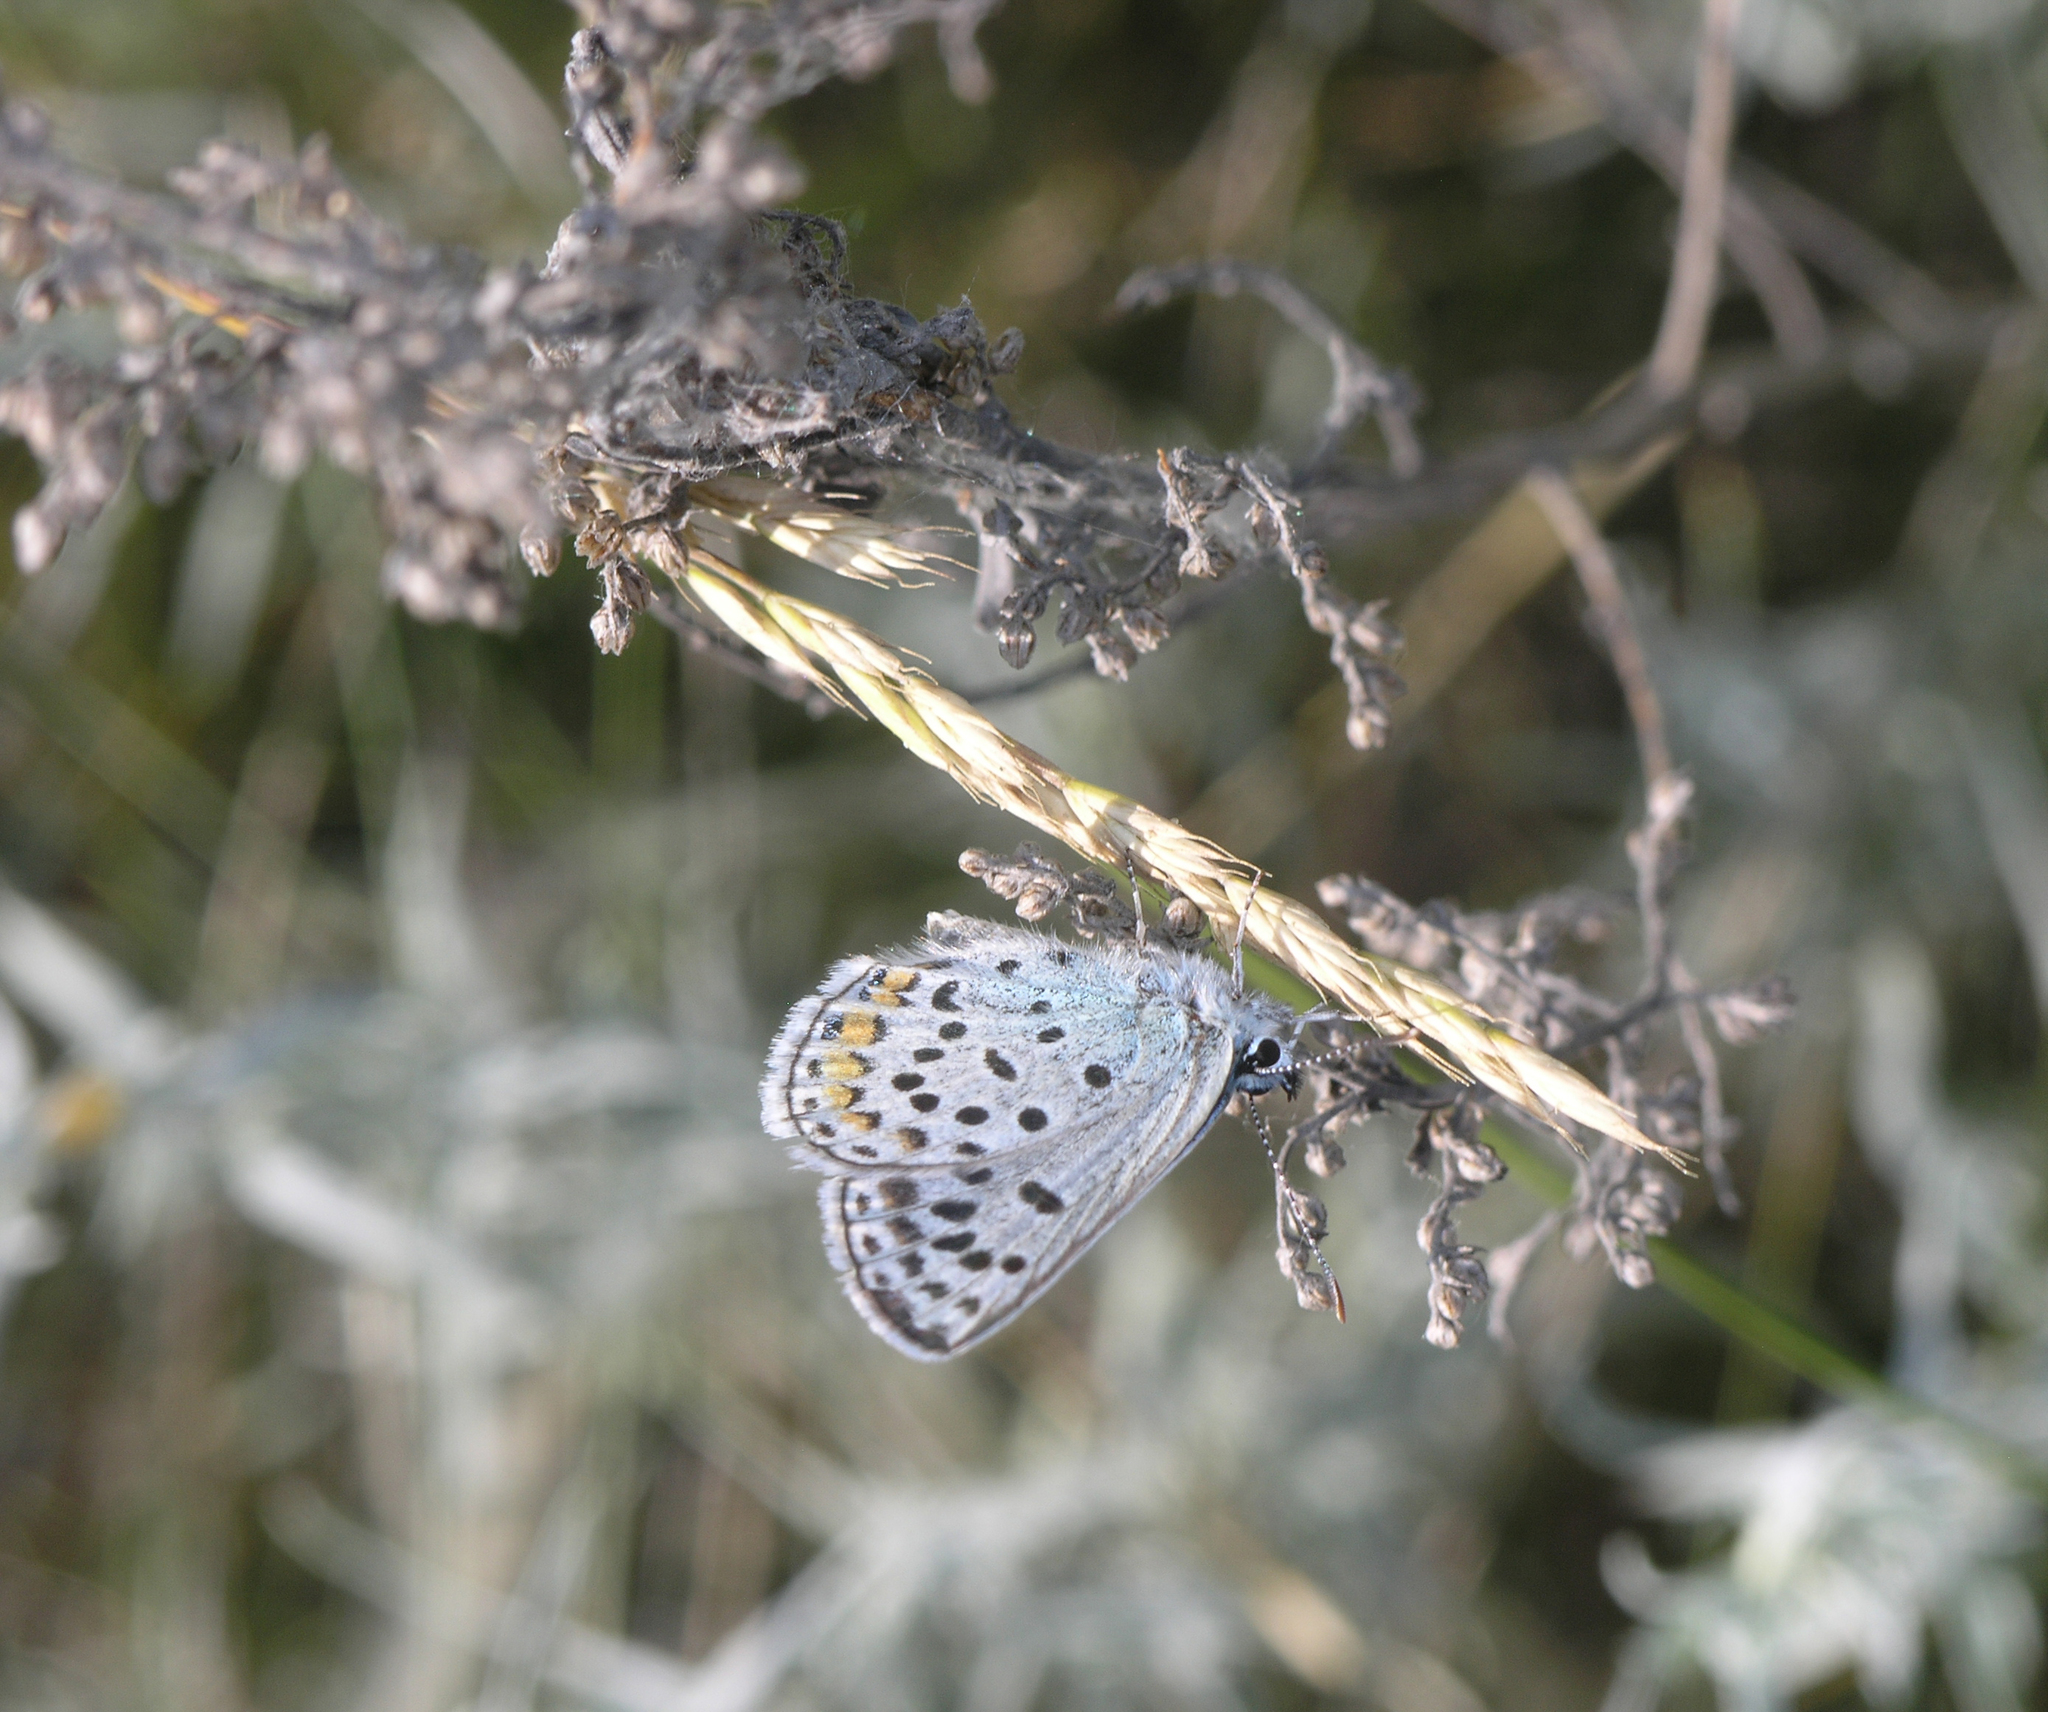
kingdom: Animalia
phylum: Arthropoda
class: Insecta
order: Lepidoptera
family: Lycaenidae
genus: Glabroculus
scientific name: Glabroculus cyane
